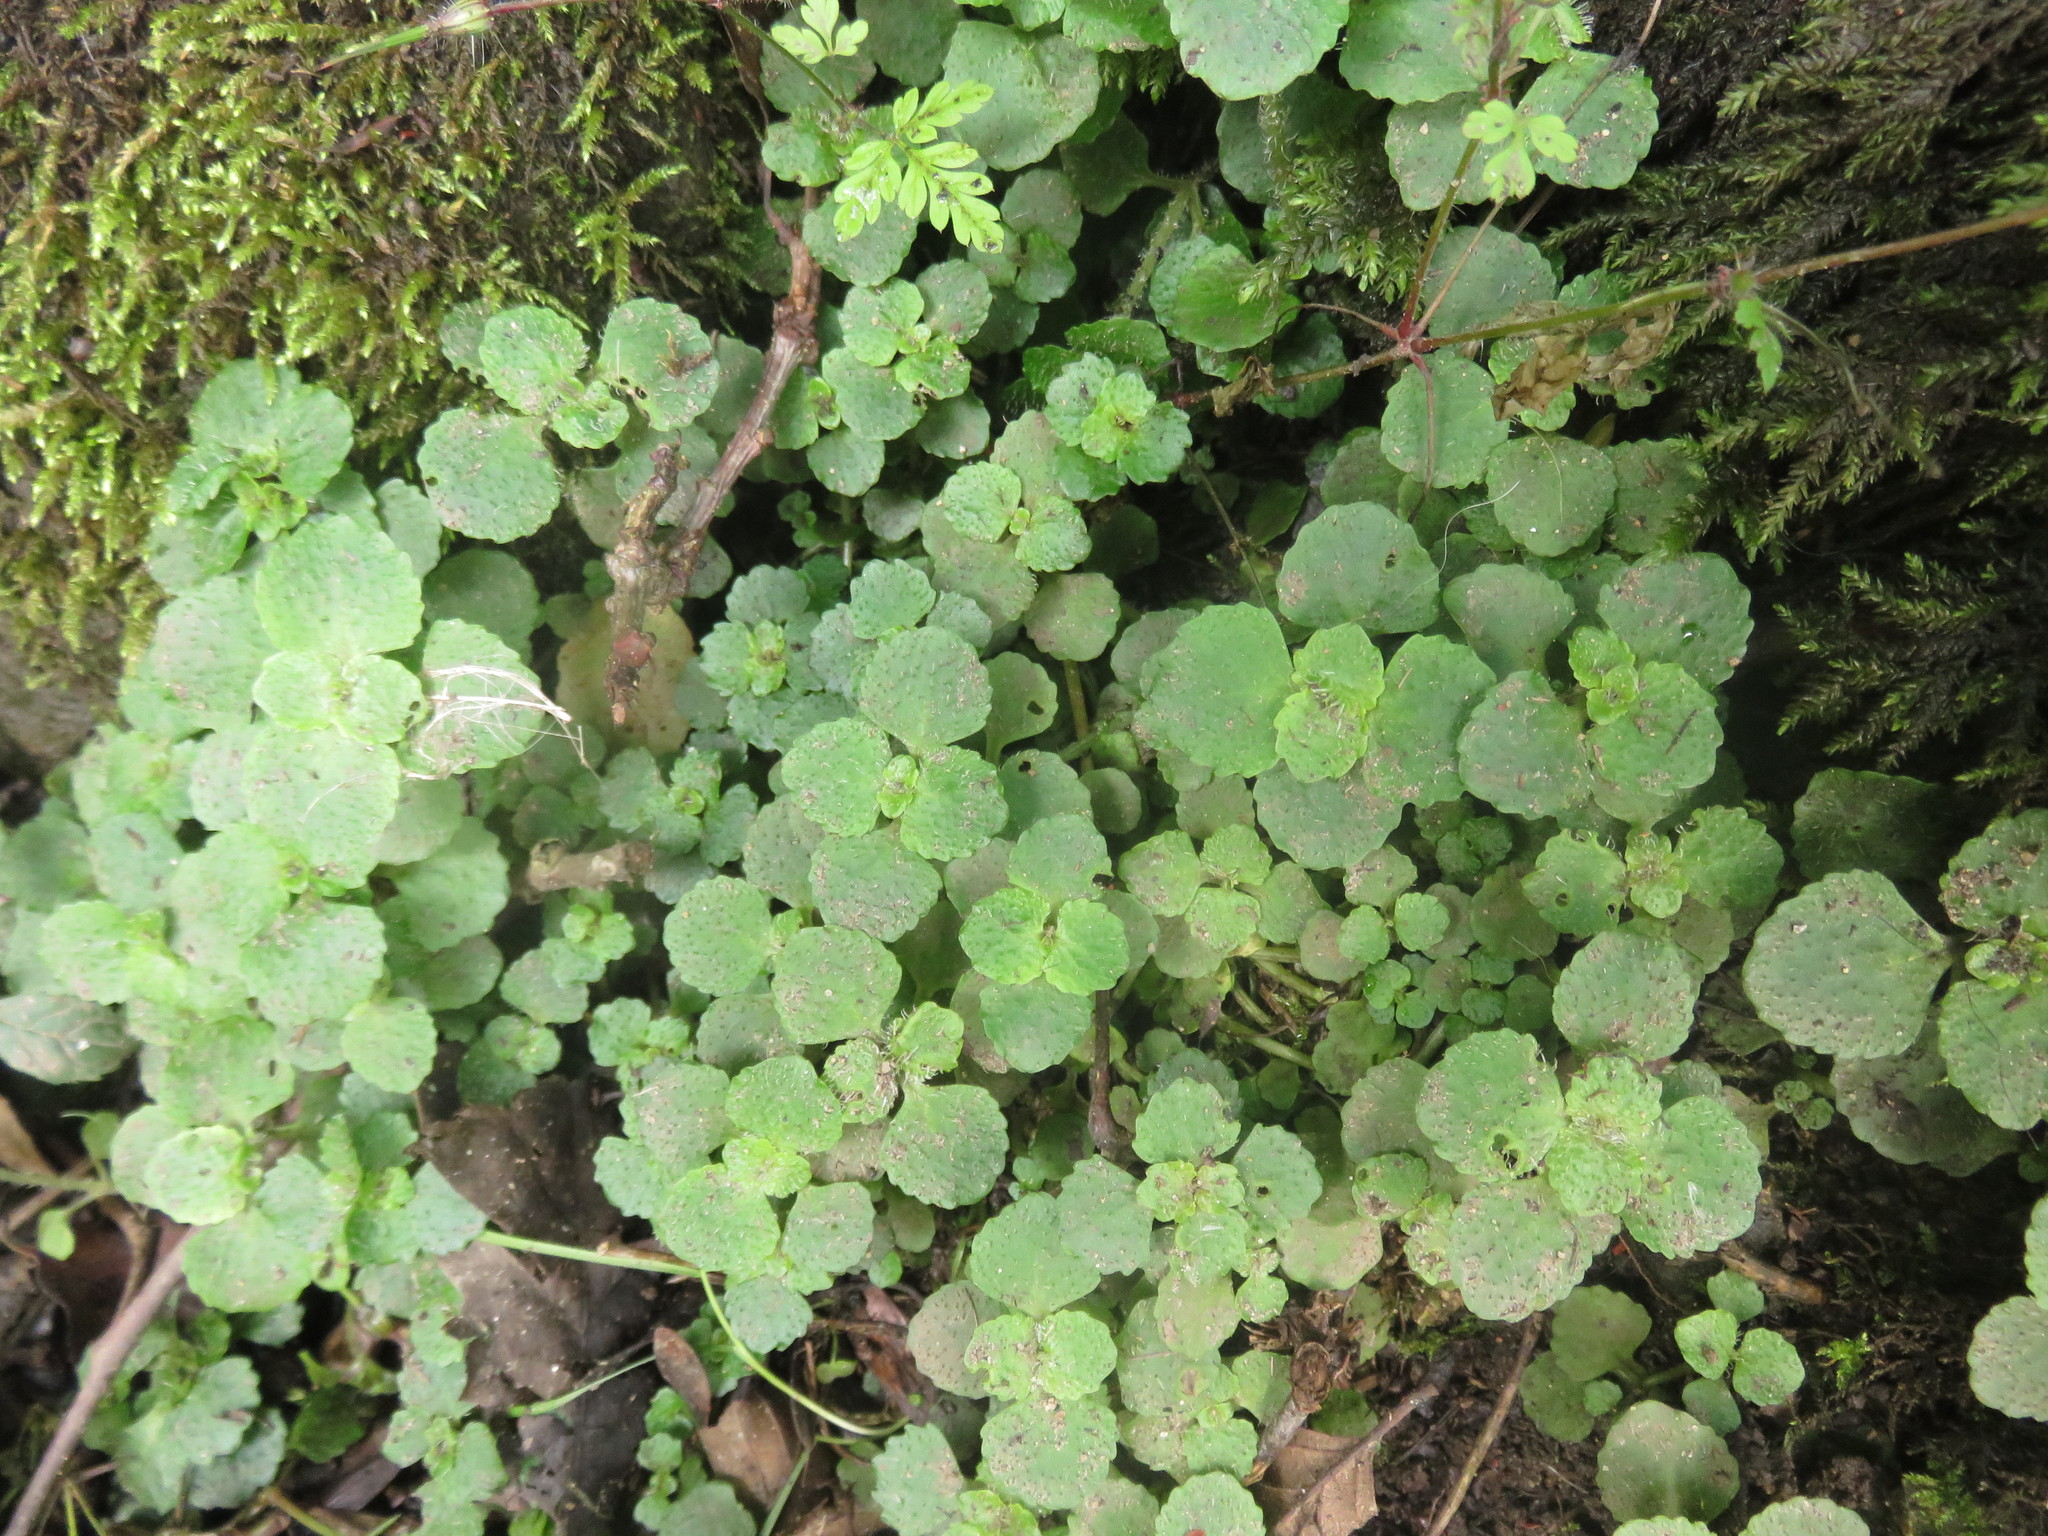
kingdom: Plantae
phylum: Tracheophyta
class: Magnoliopsida
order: Saxifragales
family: Saxifragaceae
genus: Chrysosplenium
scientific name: Chrysosplenium oppositifolium
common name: Opposite-leaved golden-saxifrage
